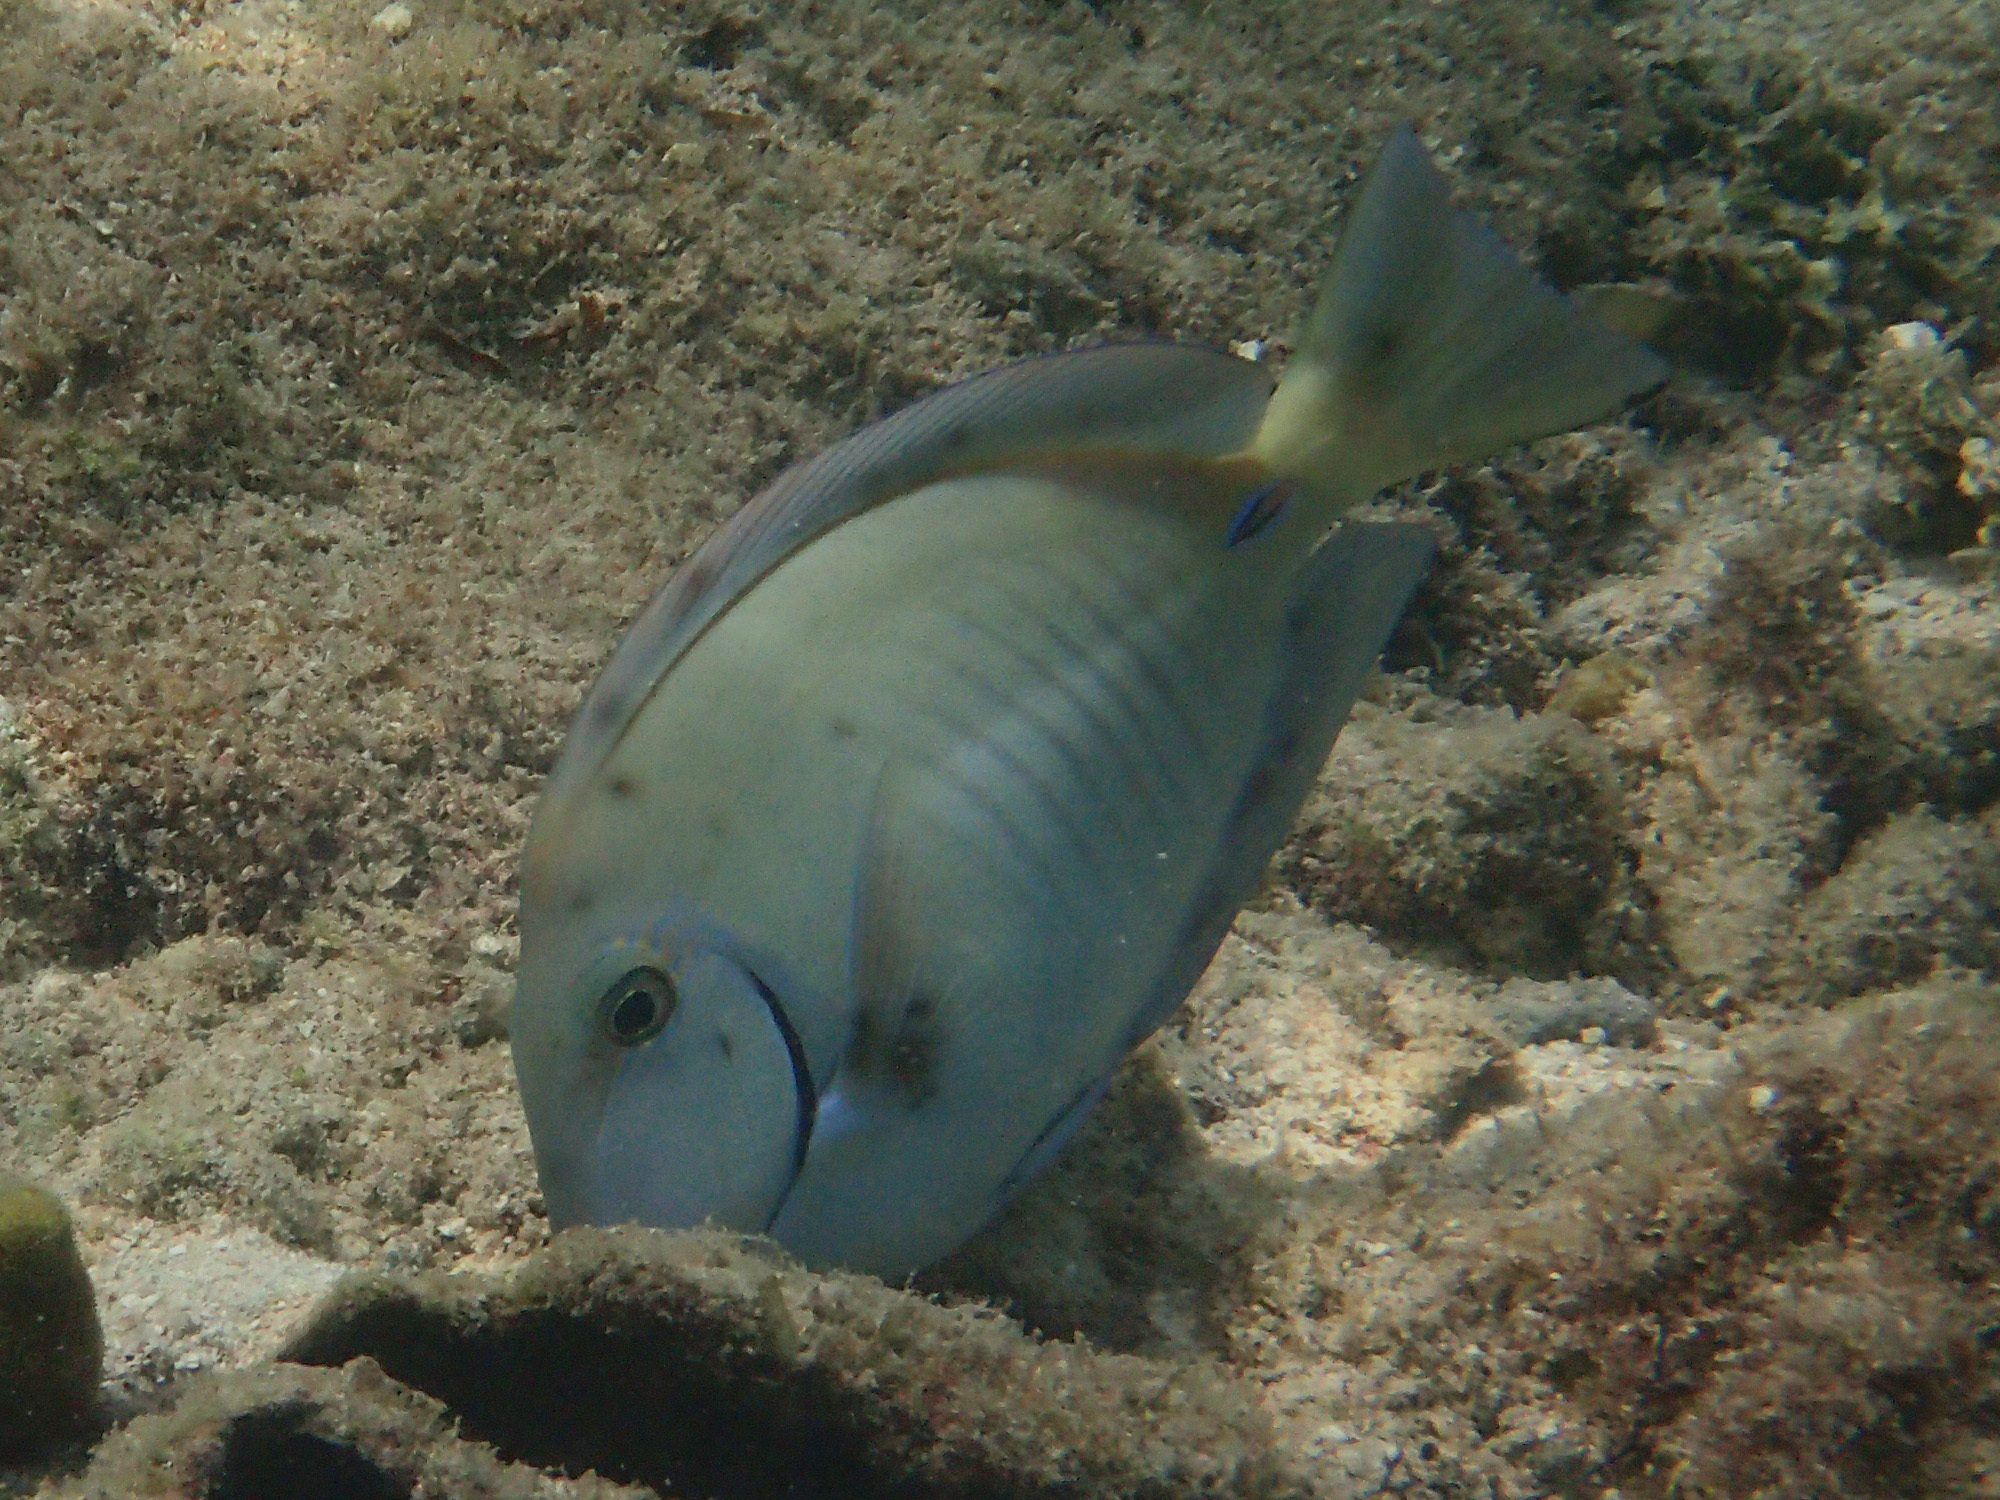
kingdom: Animalia
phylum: Chordata
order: Perciformes
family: Acanthuridae
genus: Acanthurus
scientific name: Acanthurus chirurgus
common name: Doctorfish
